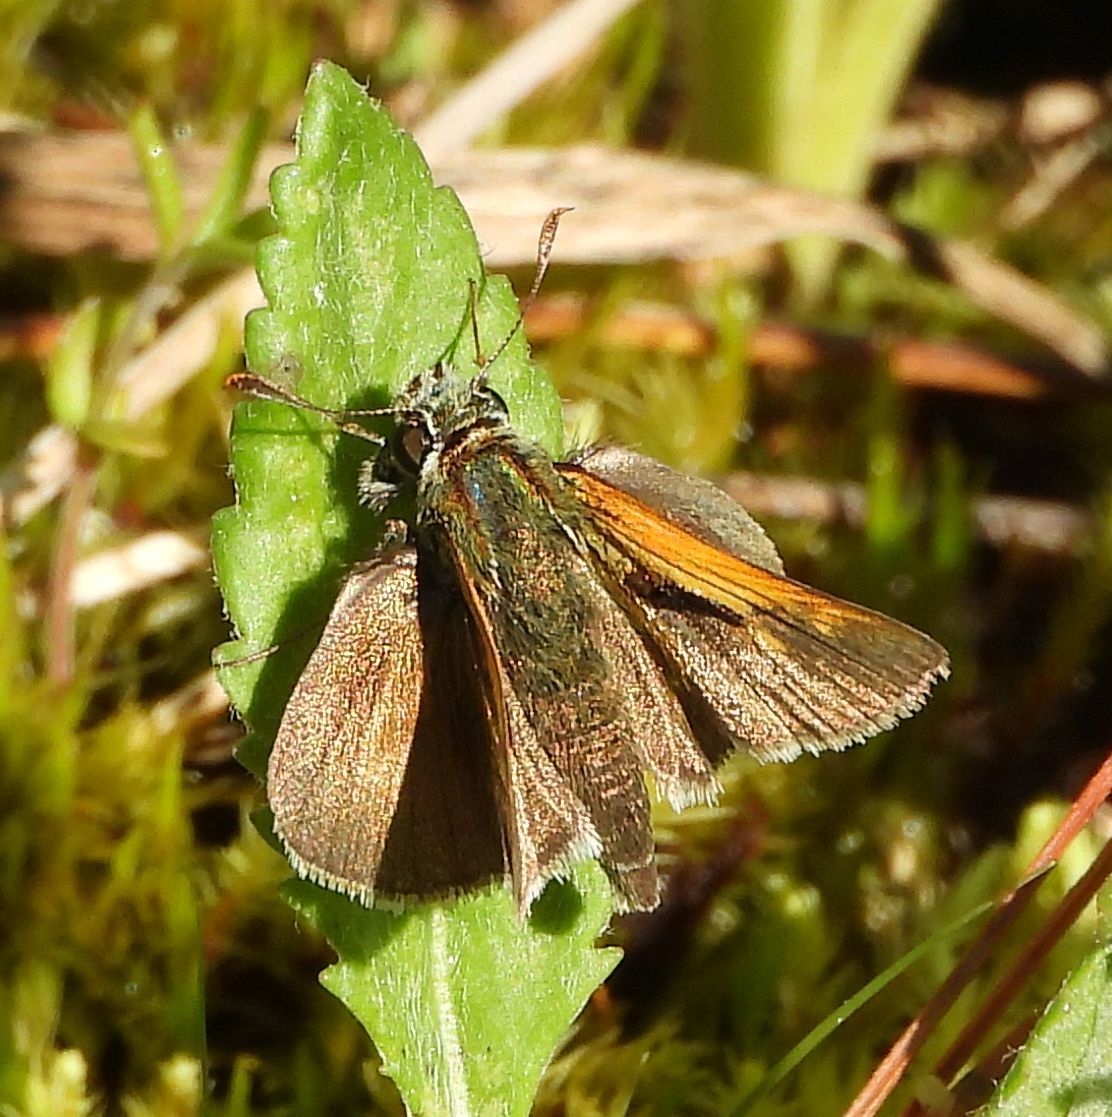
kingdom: Animalia
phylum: Arthropoda
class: Insecta
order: Lepidoptera
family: Hesperiidae
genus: Polites
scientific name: Polites themistocles
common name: Tawny-edged skipper
